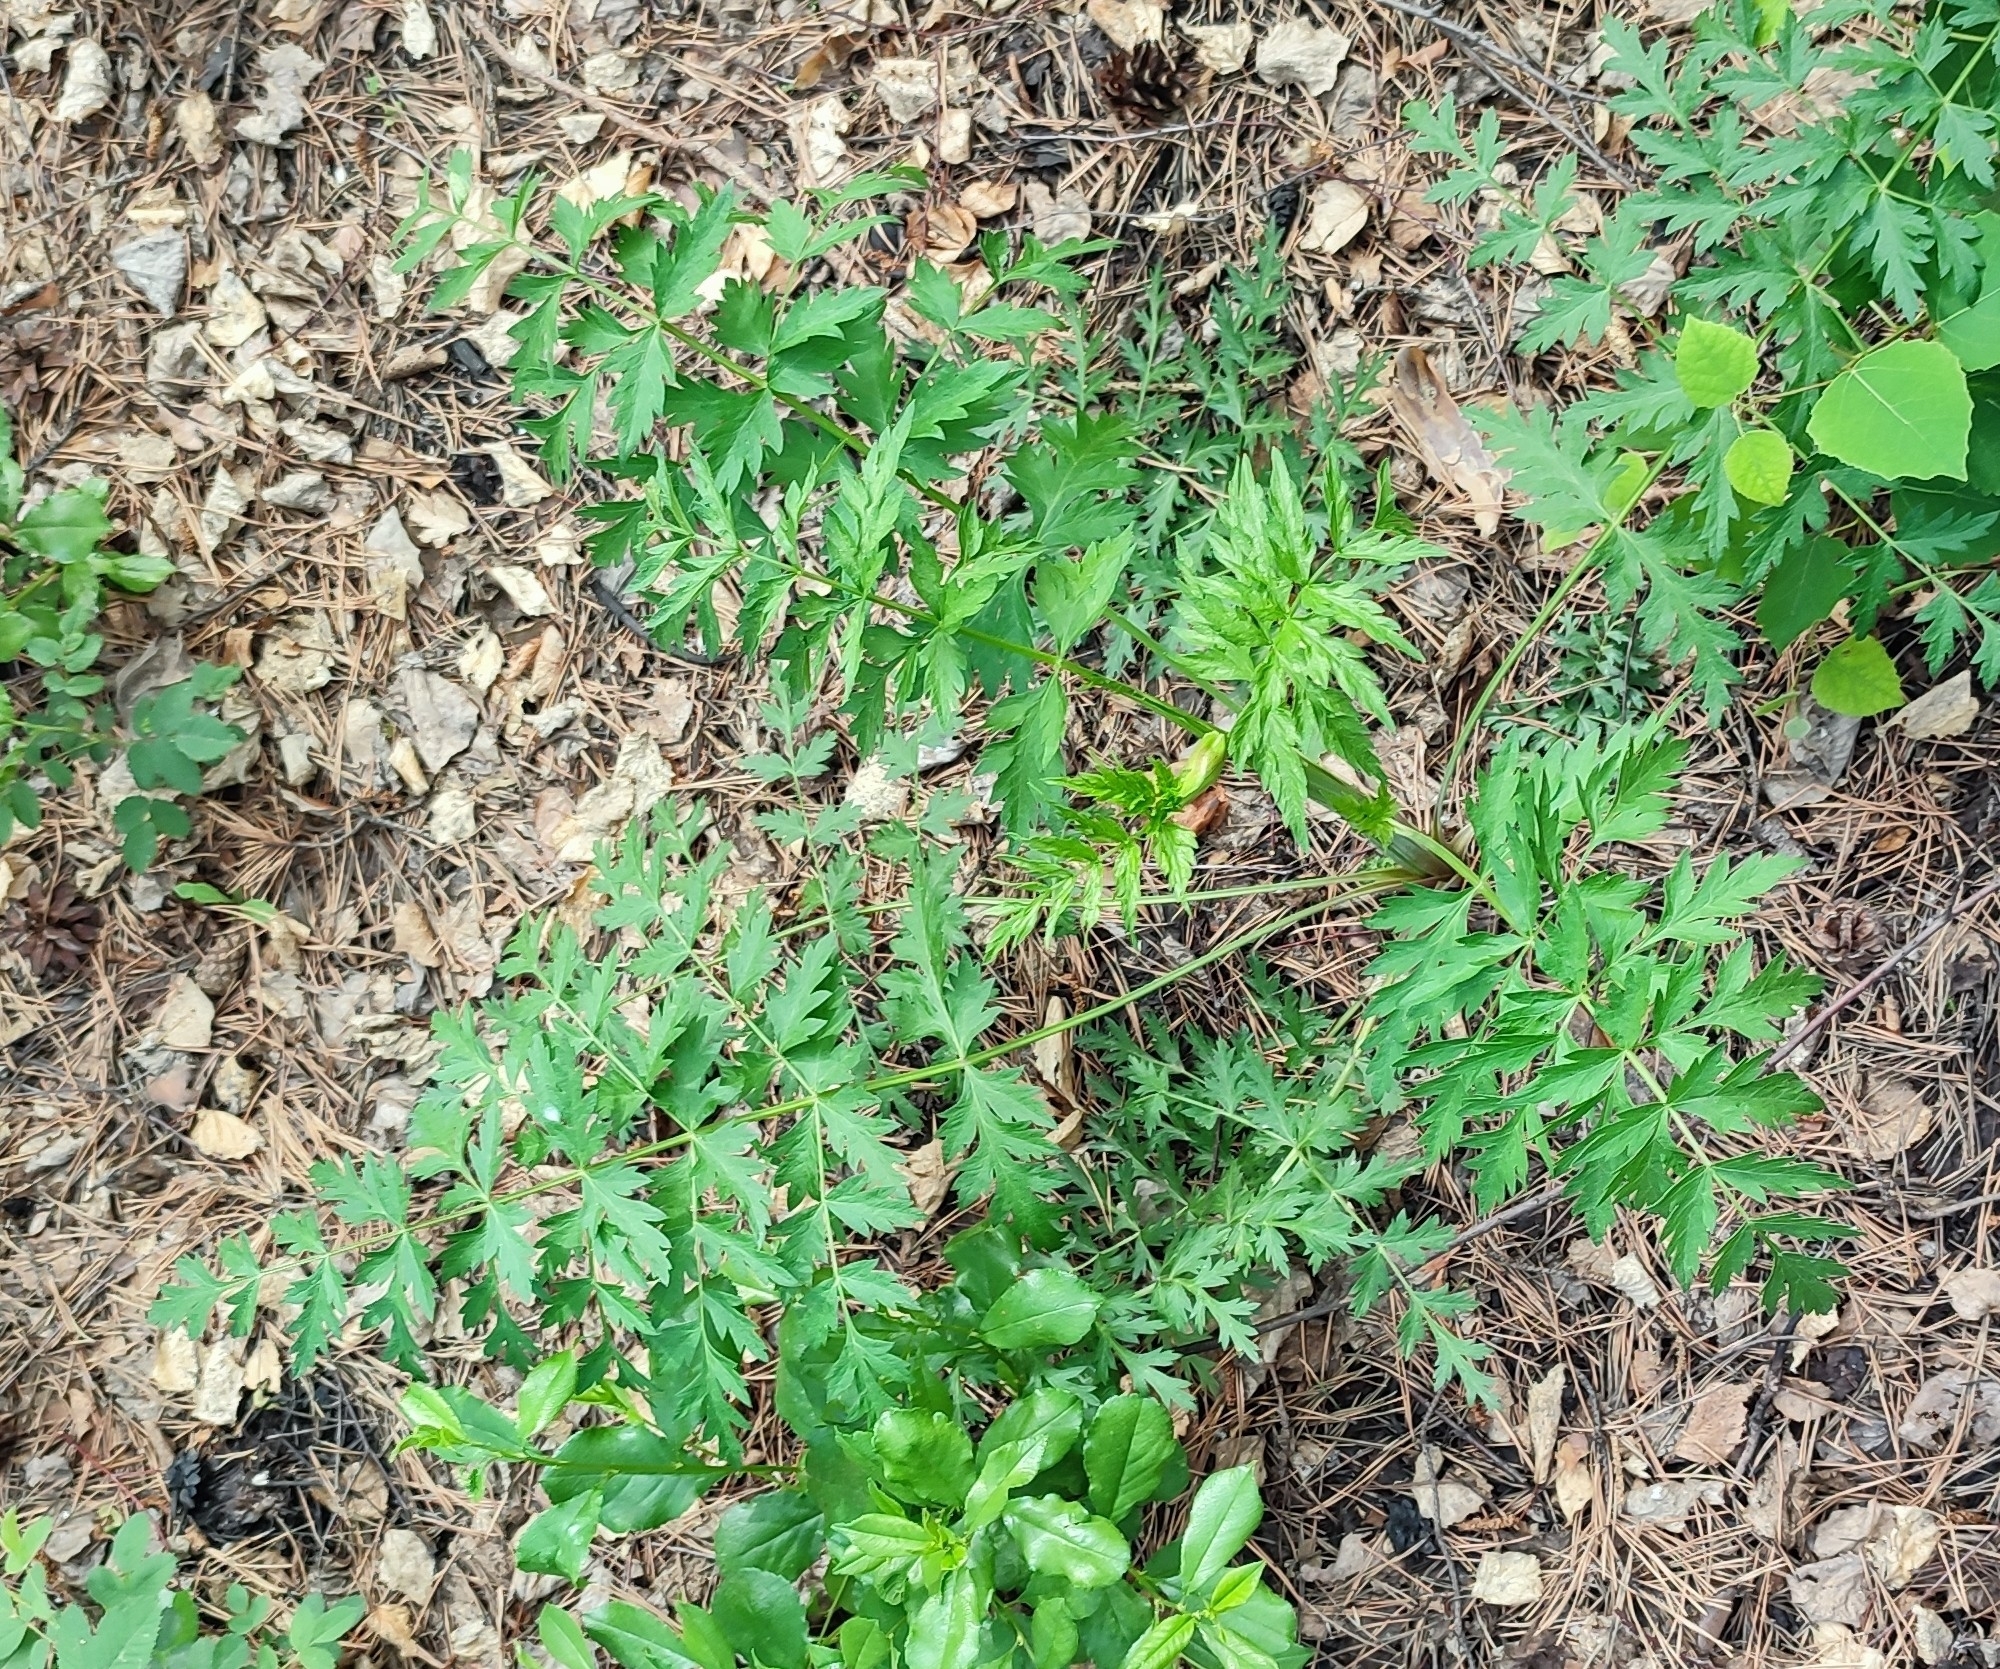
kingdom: Plantae
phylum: Tracheophyta
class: Magnoliopsida
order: Apiales
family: Apiaceae
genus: Seseli
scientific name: Seseli libanotis
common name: Mooncarrot
